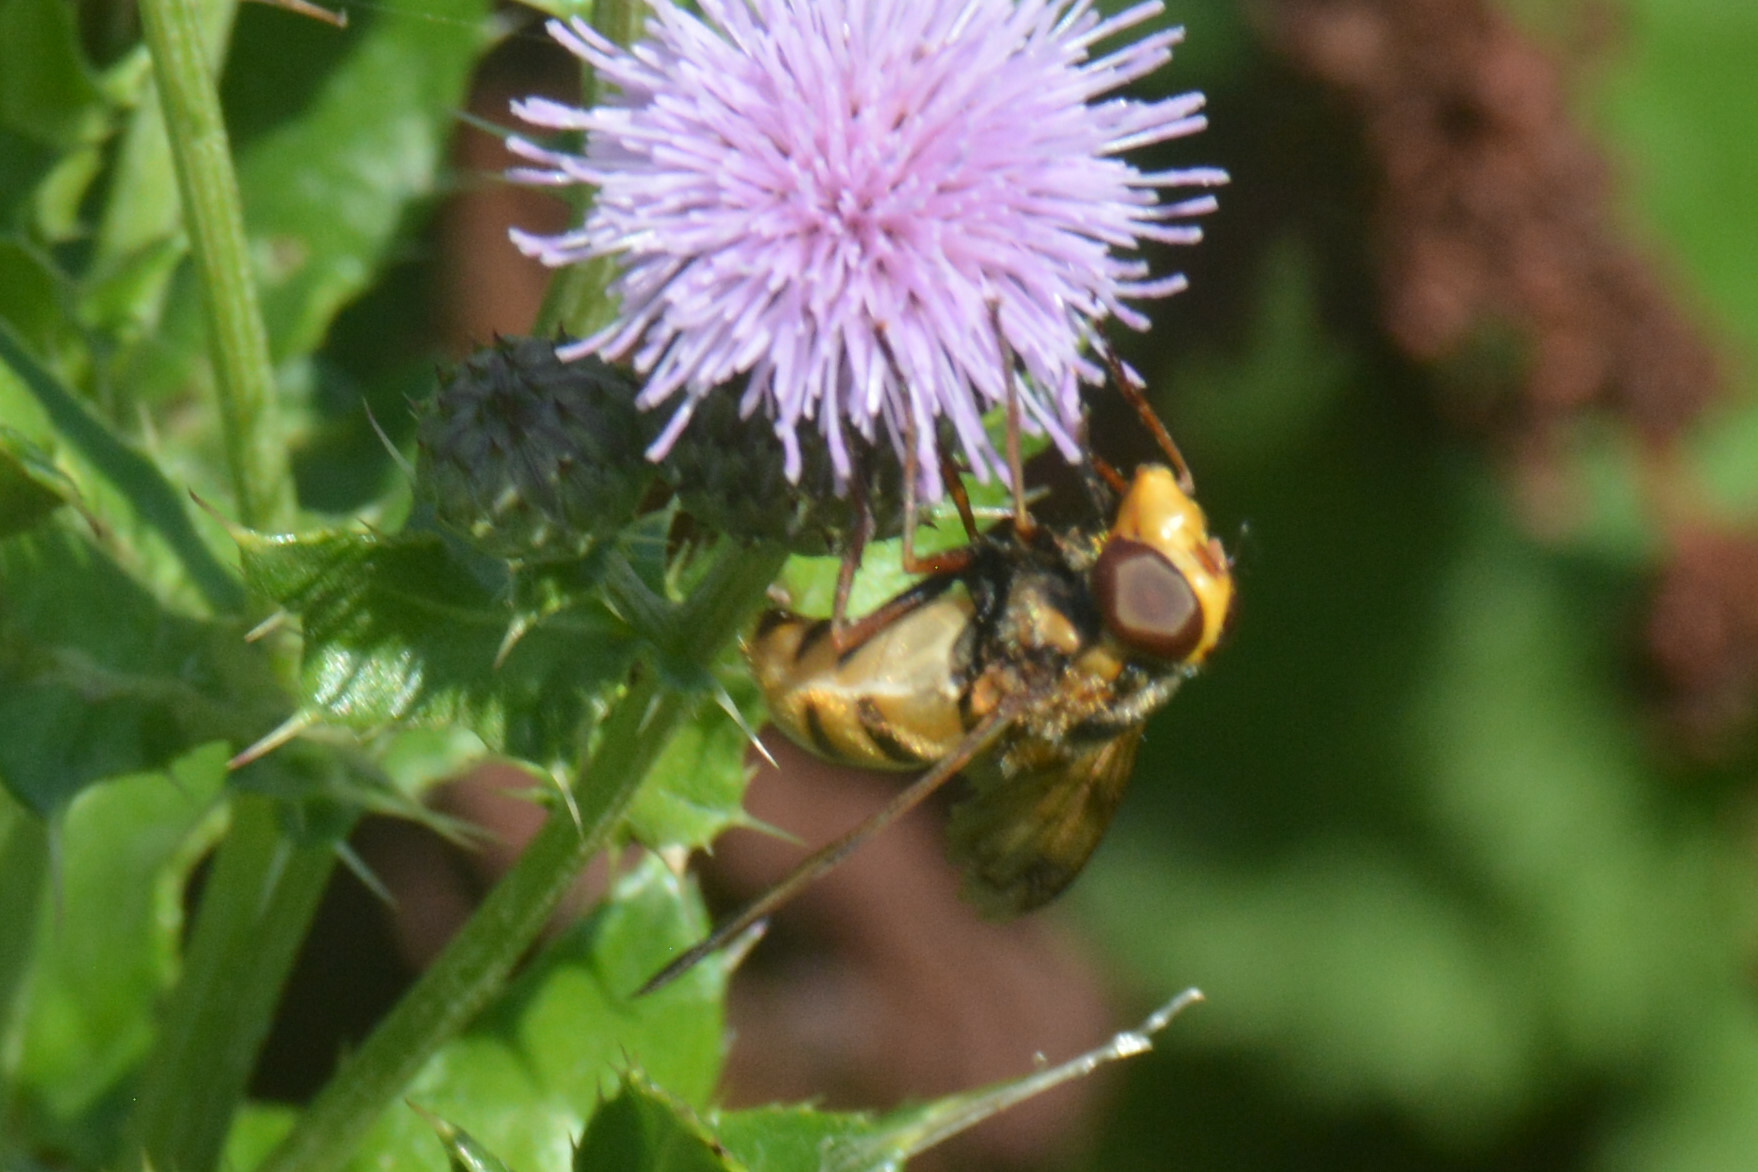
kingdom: Animalia
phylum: Arthropoda
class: Insecta
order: Diptera
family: Syrphidae
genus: Volucella
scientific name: Volucella inanis
